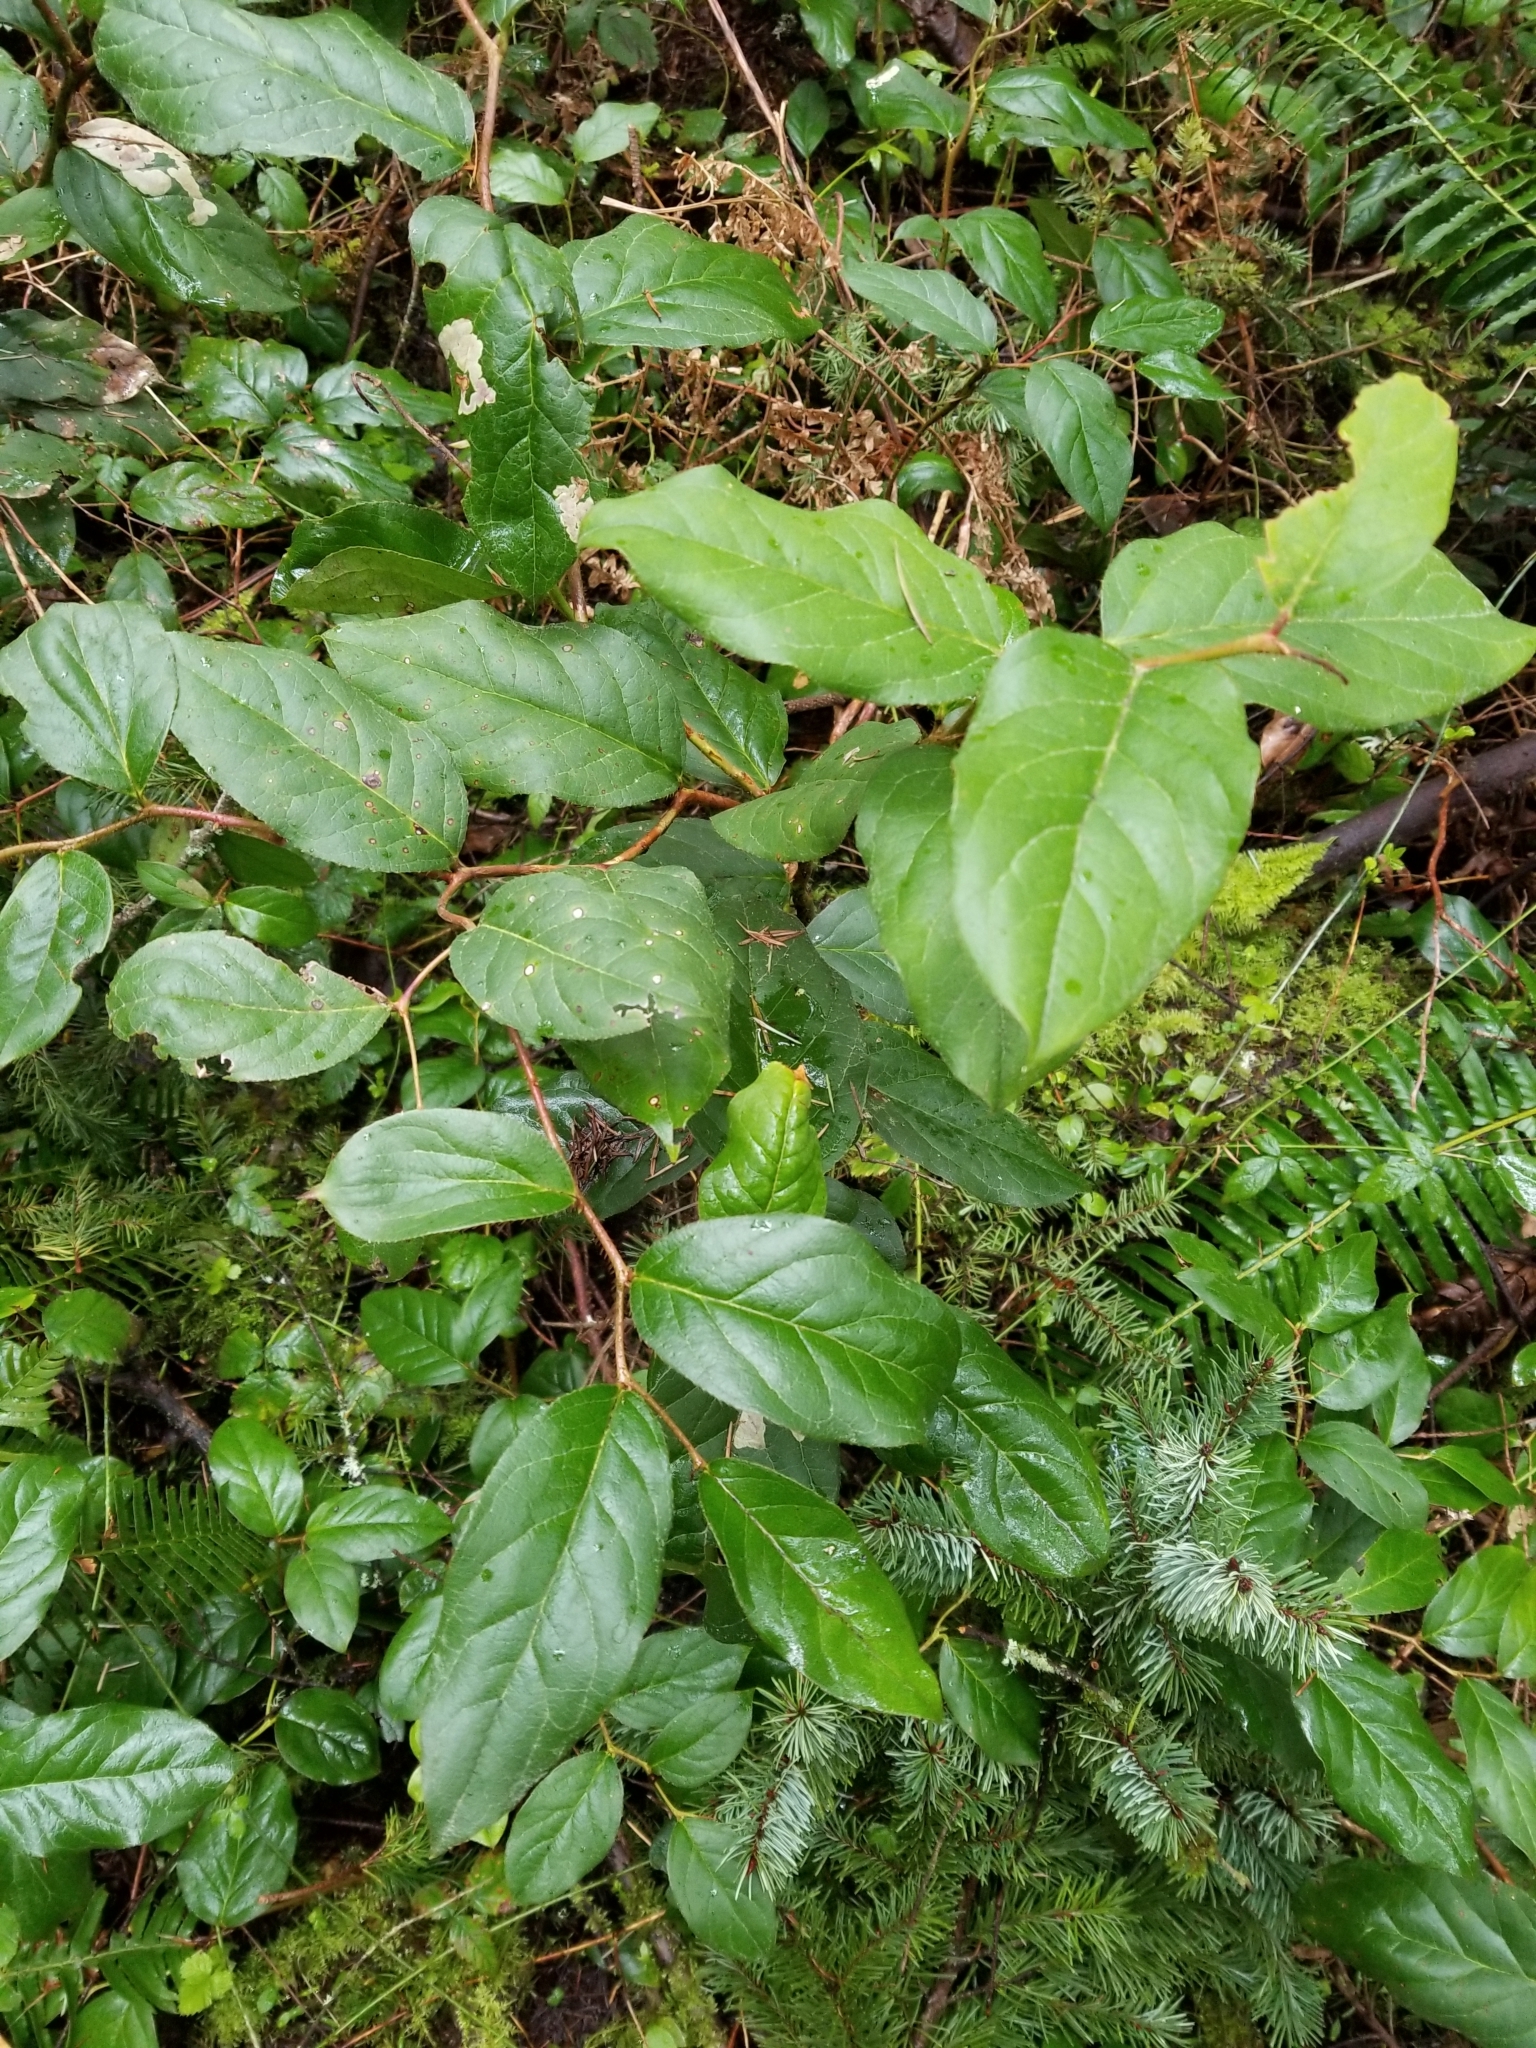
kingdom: Plantae
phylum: Tracheophyta
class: Magnoliopsida
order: Ericales
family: Ericaceae
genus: Gaultheria
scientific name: Gaultheria shallon
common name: Shallon
